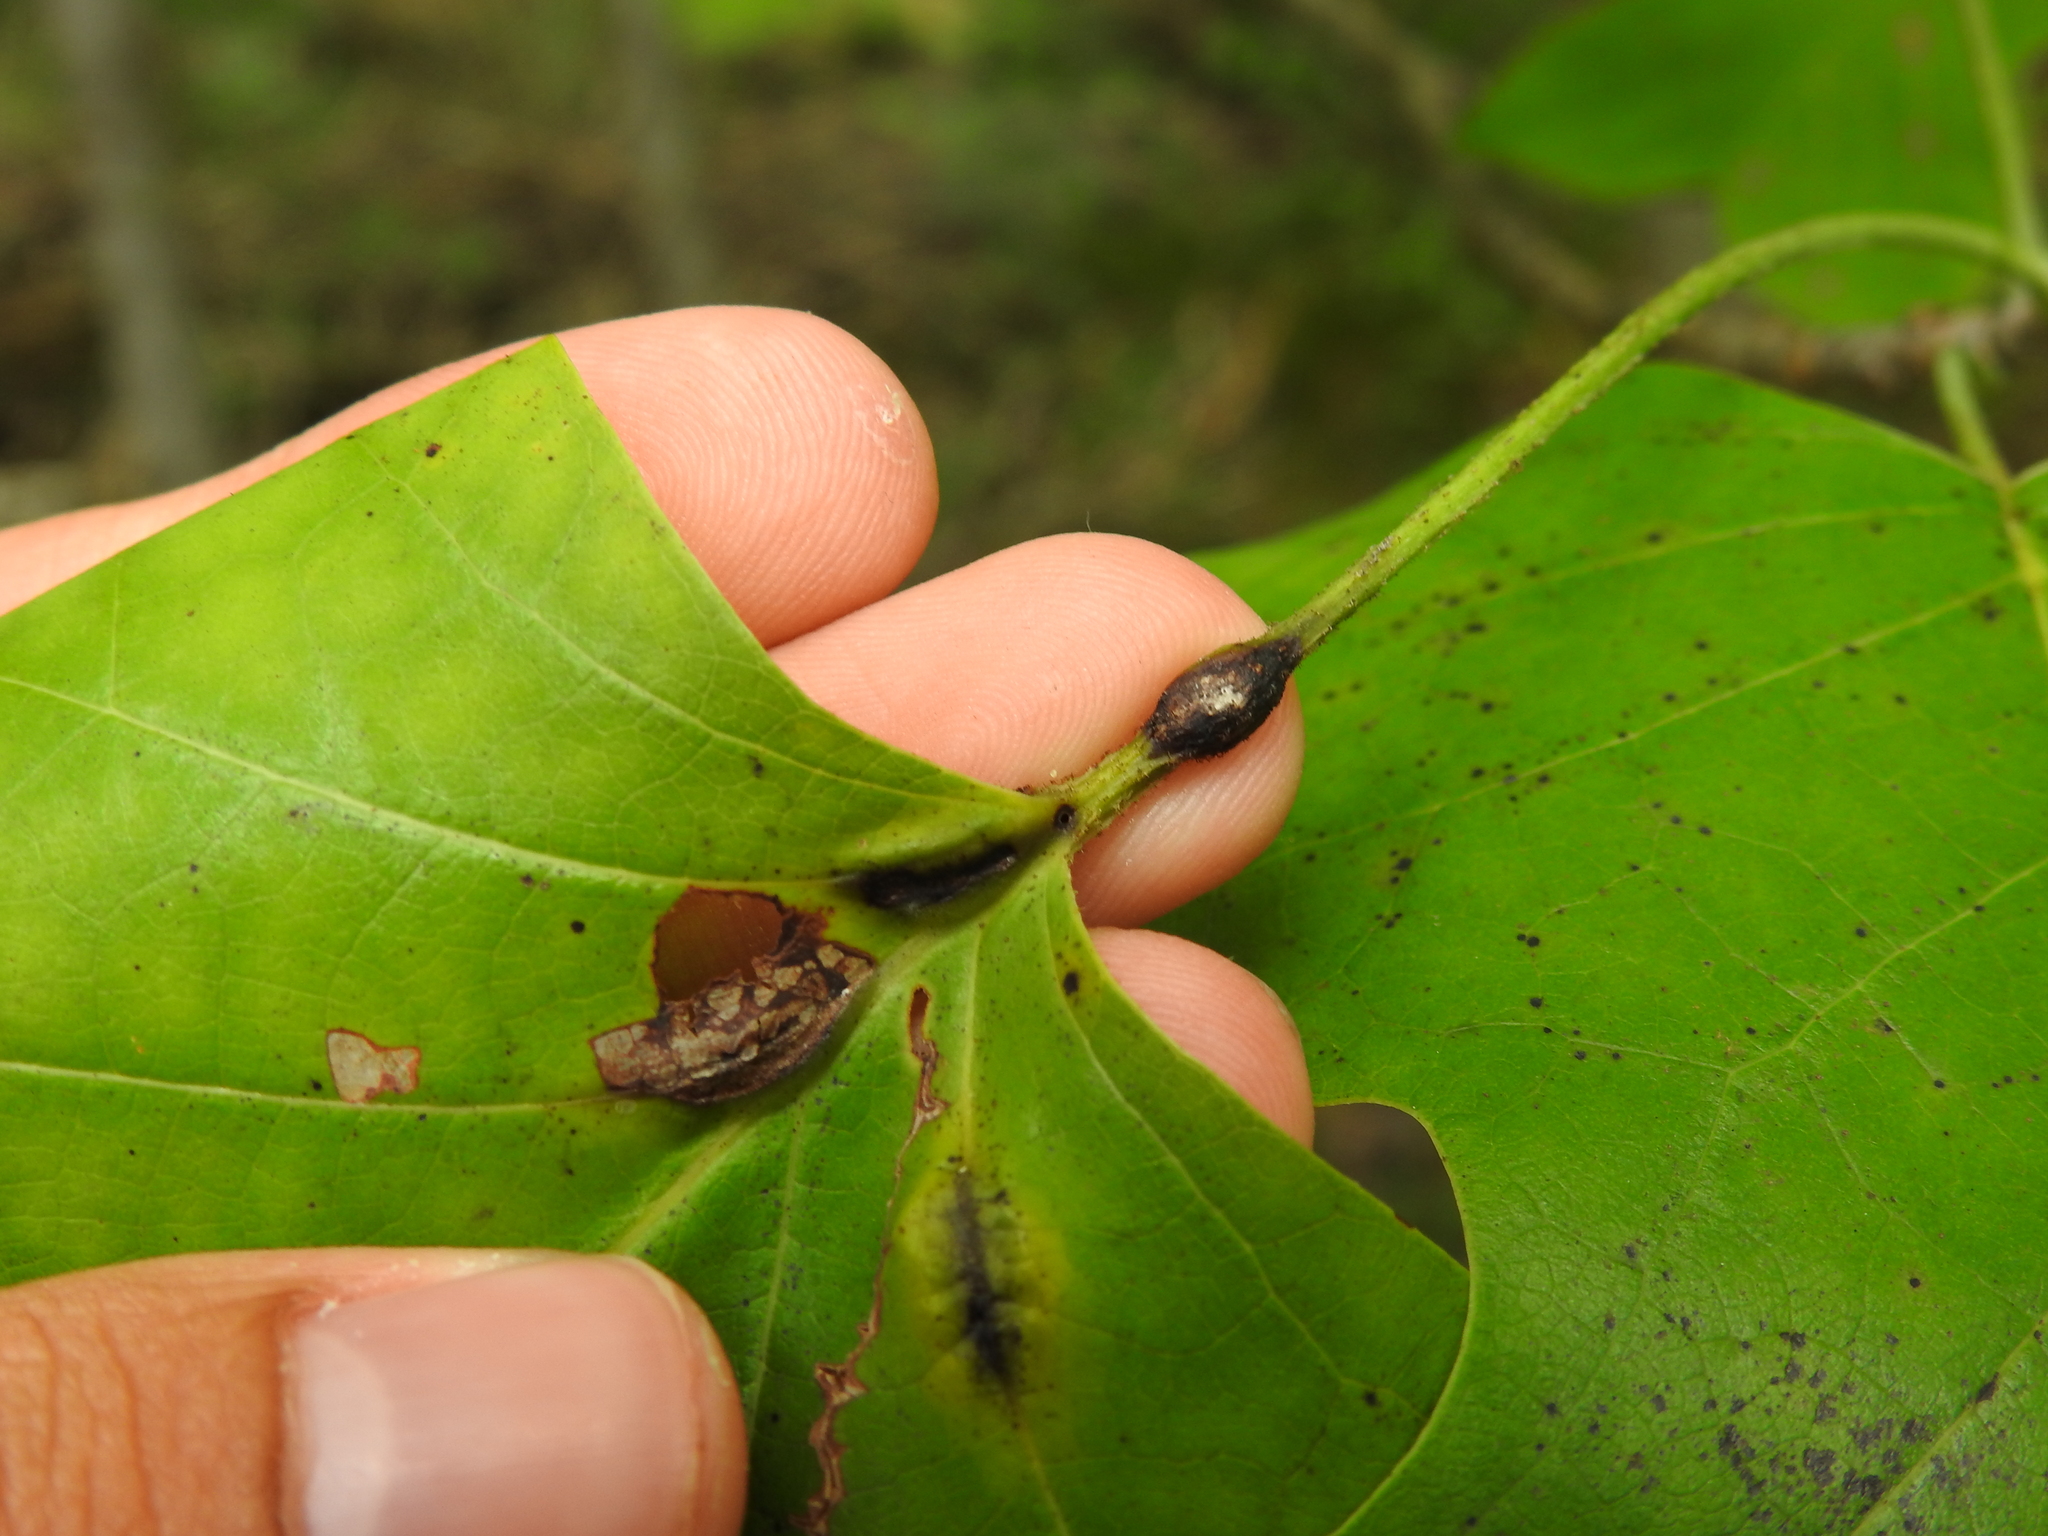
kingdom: Animalia
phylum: Arthropoda
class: Insecta
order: Diptera
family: Cecidomyiidae
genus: Resseliella
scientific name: Resseliella tulipiferae
